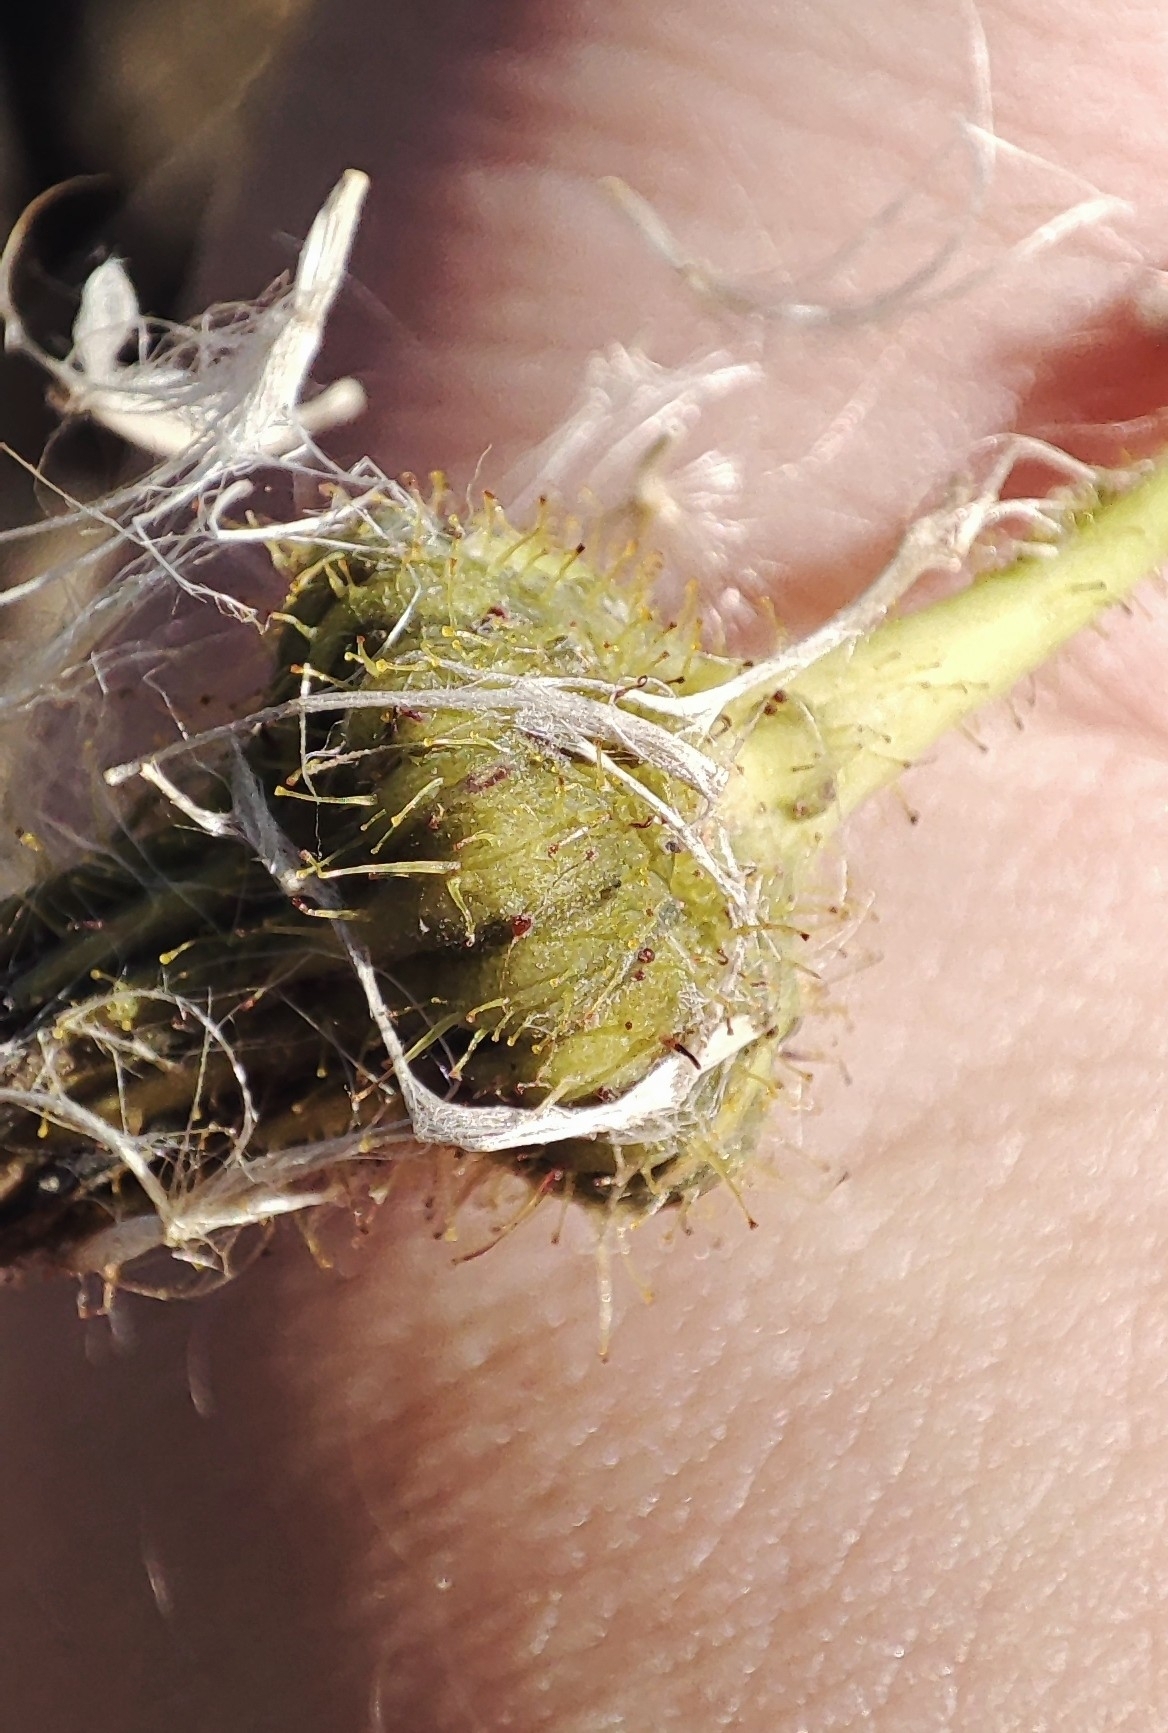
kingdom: Plantae
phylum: Tracheophyta
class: Magnoliopsida
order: Asterales
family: Asteraceae
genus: Sonchus
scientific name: Sonchus arvensis
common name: Perennial sow-thistle
